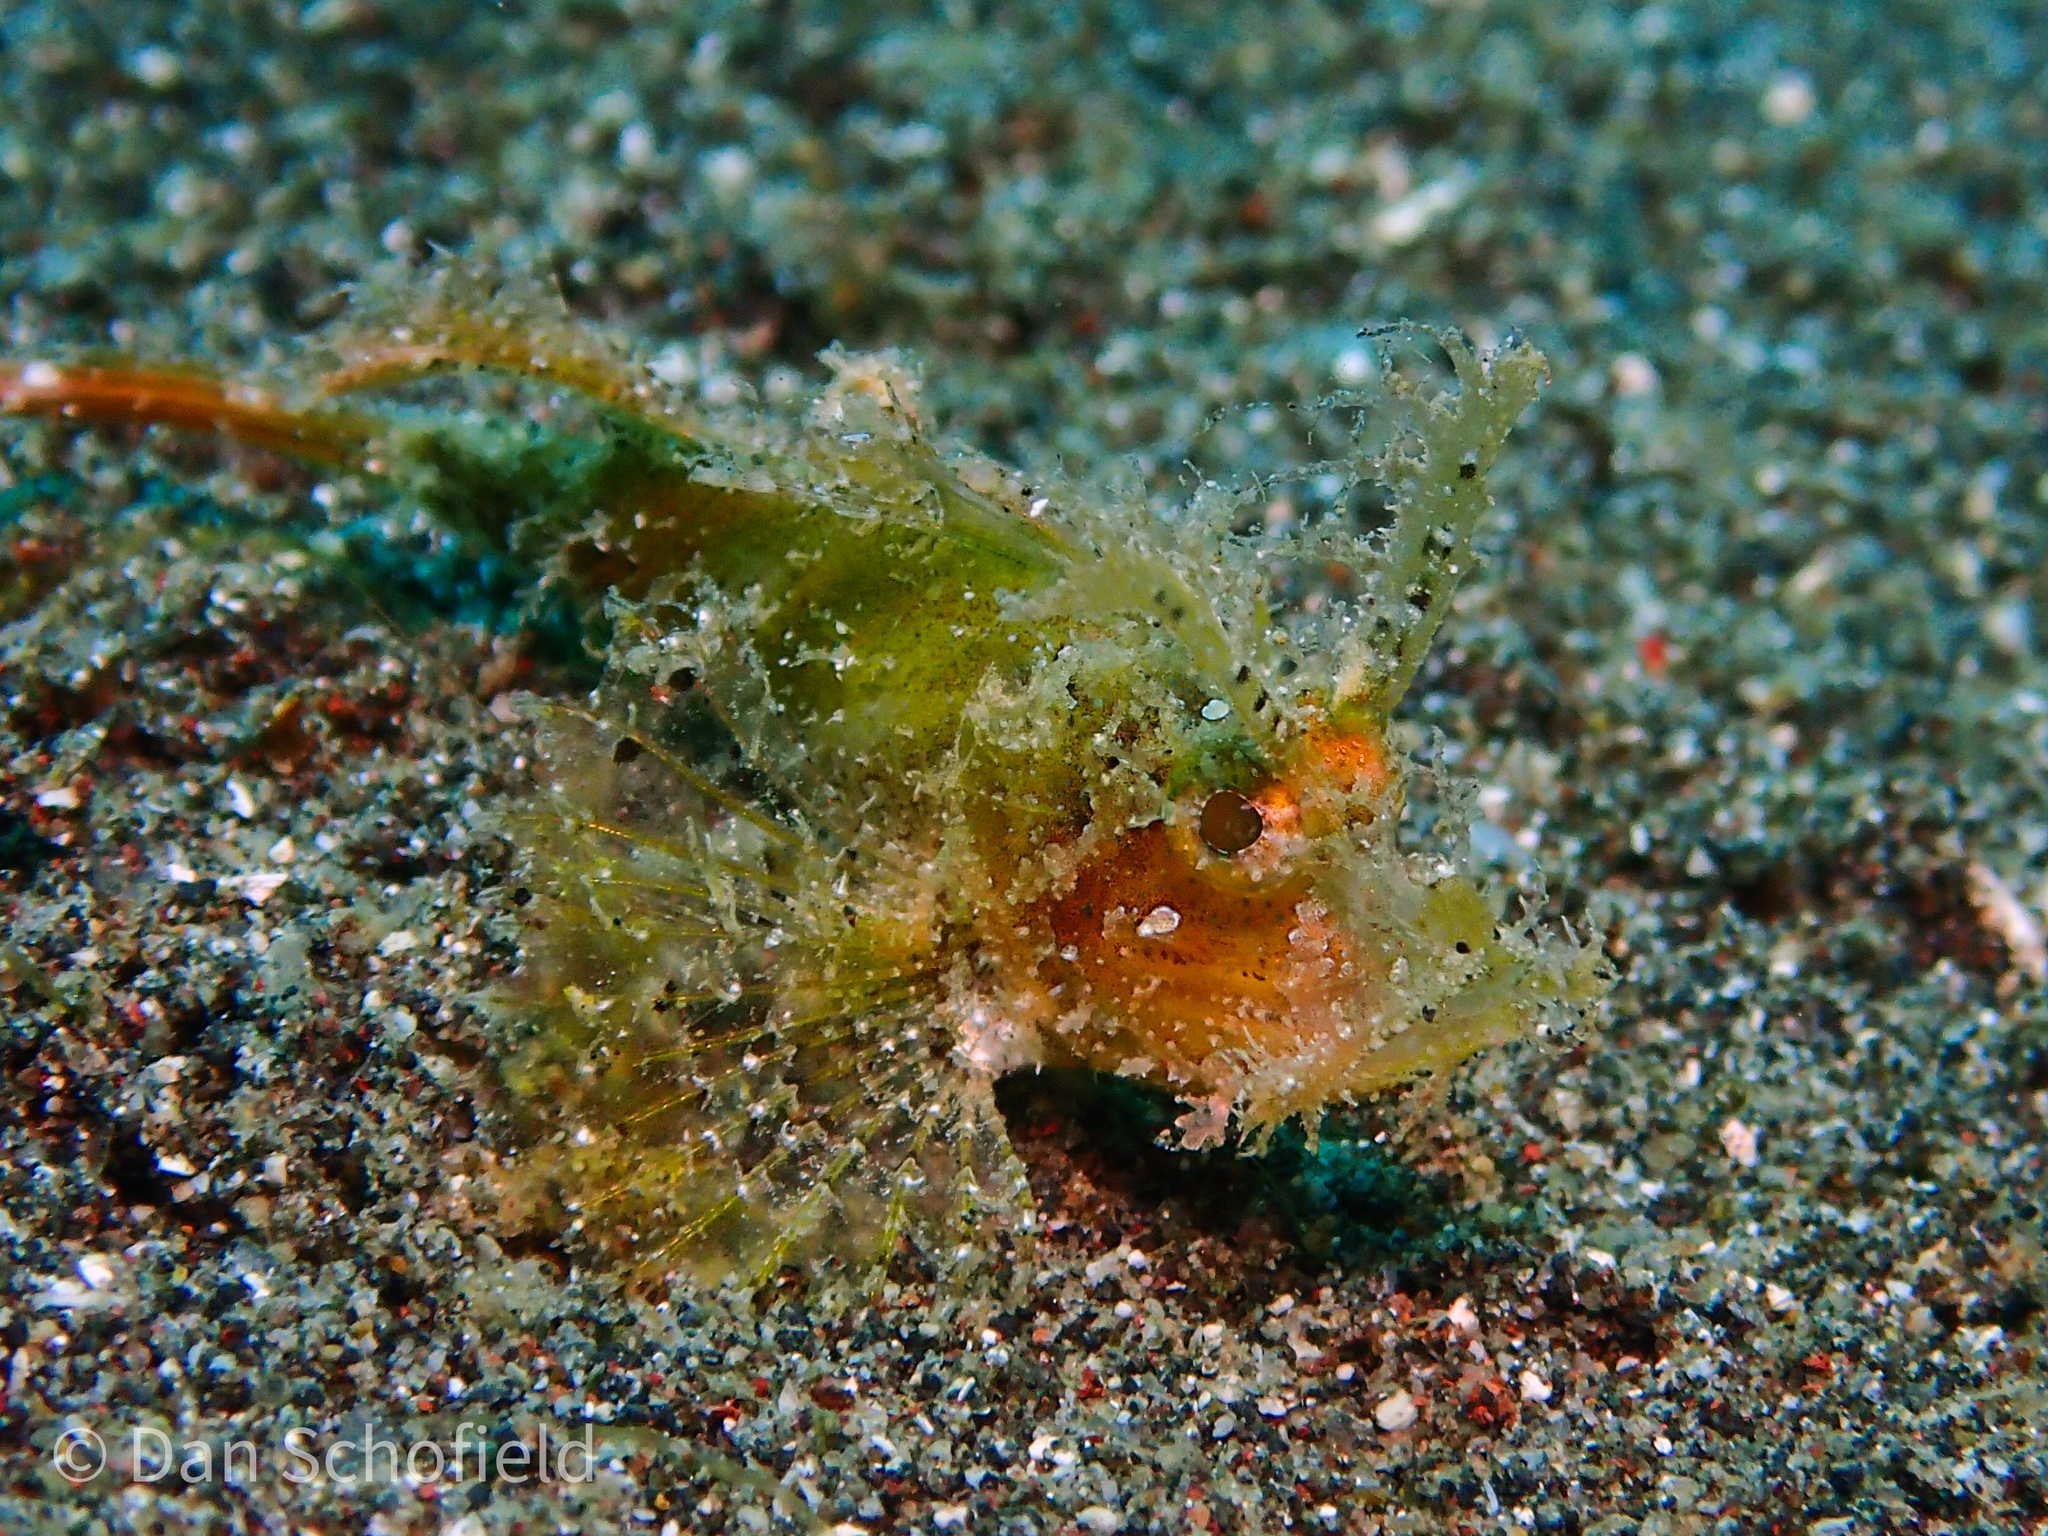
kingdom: Animalia
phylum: Chordata
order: Scorpaeniformes
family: Scorpaenidae
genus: Pteroidichthys
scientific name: Pteroidichthys amboinensis
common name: Ambon scorpionfish
